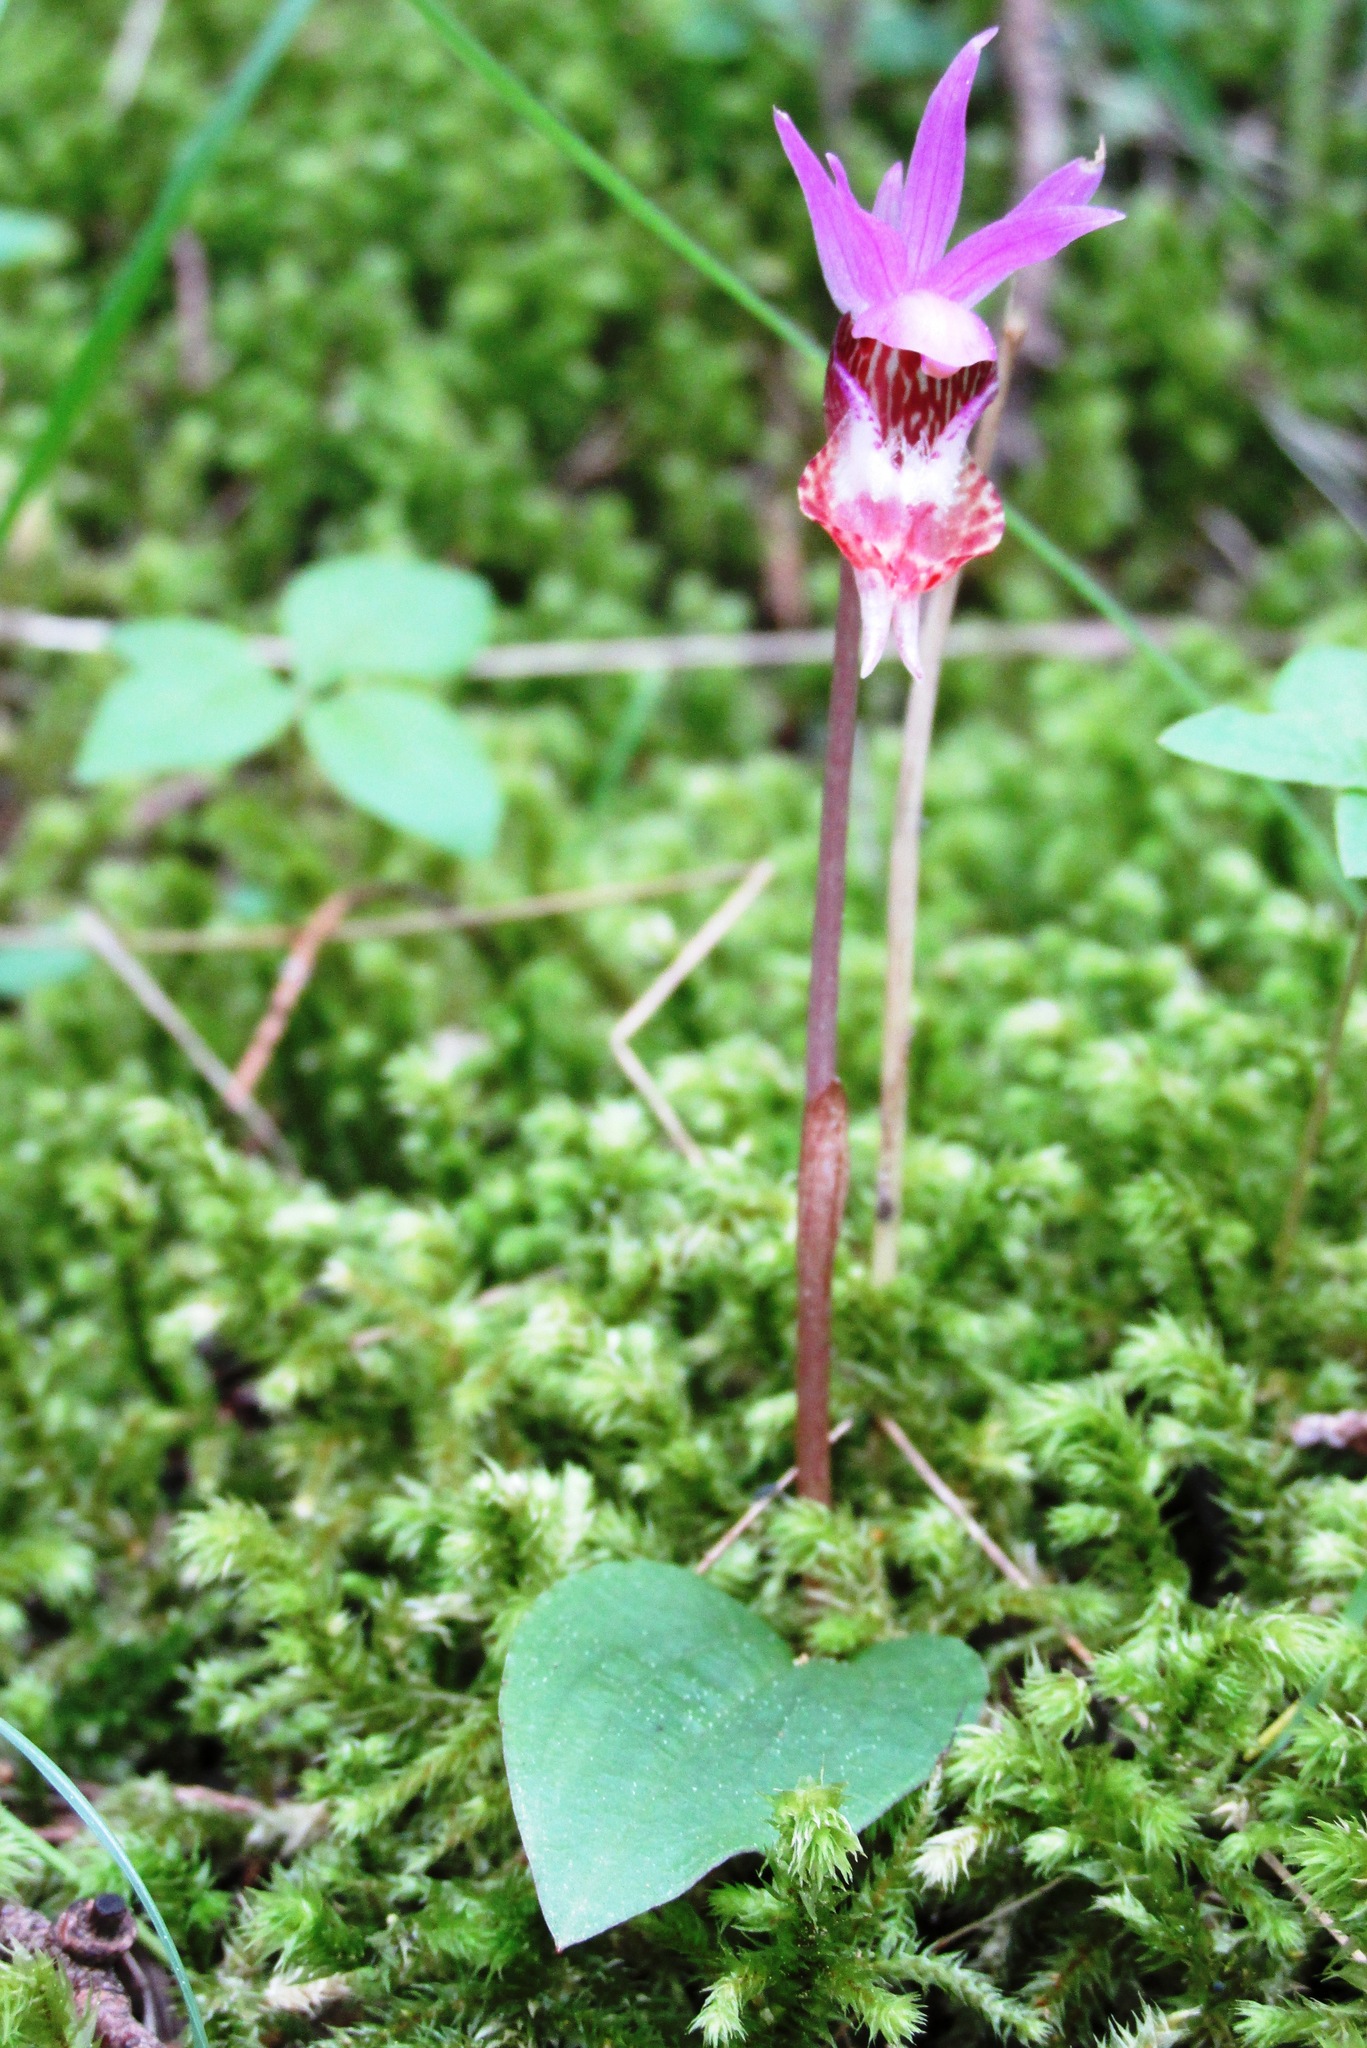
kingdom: Plantae
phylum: Tracheophyta
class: Liliopsida
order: Asparagales
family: Orchidaceae
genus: Calypso
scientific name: Calypso bulbosa
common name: Calypso
